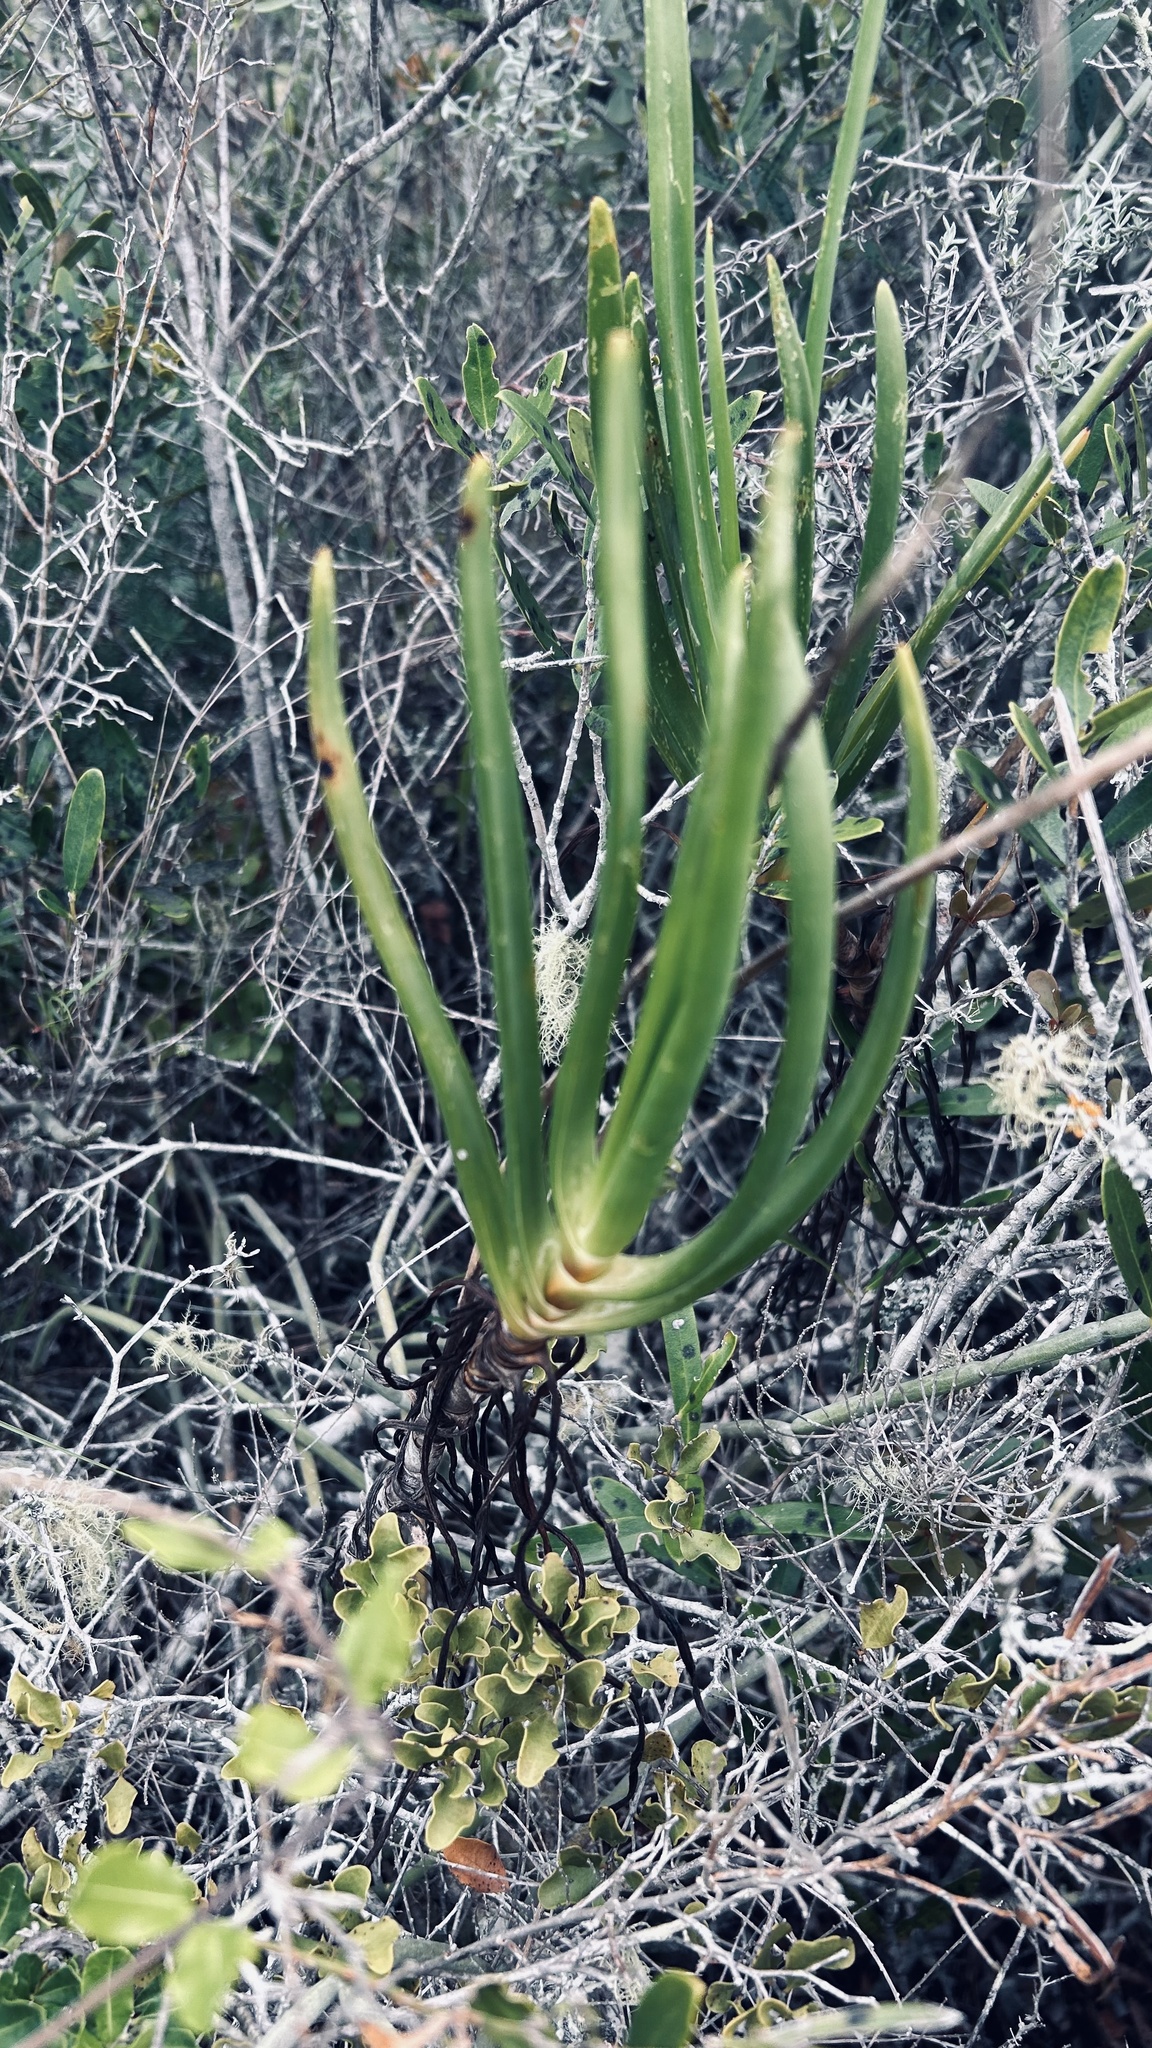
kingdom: Plantae
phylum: Tracheophyta
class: Liliopsida
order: Asparagales
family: Asphodelaceae
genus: Bulbine
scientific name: Bulbine frutescens
